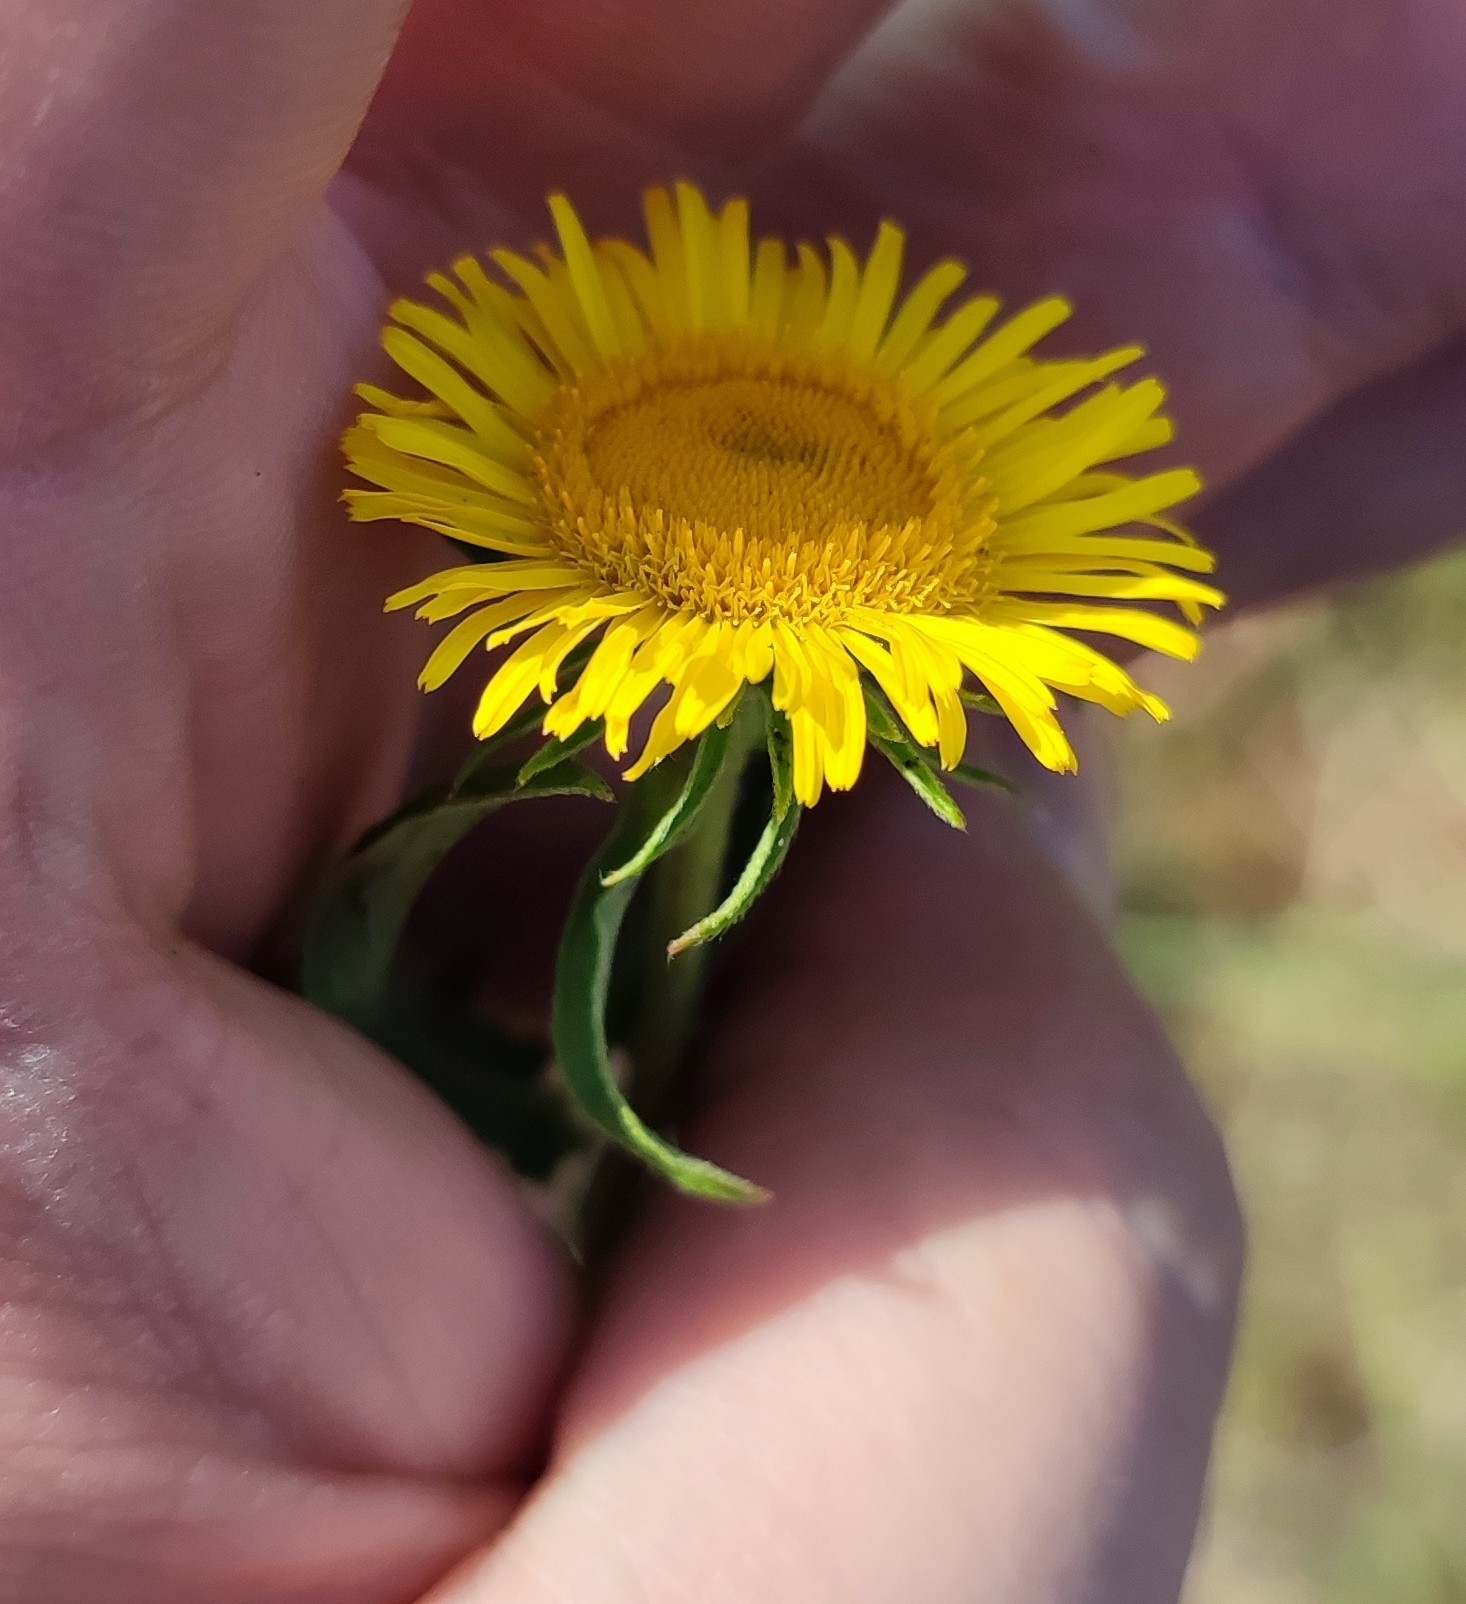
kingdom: Plantae
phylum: Tracheophyta
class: Magnoliopsida
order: Asterales
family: Asteraceae
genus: Pentanema
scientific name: Pentanema britannicum
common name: British elecampane
